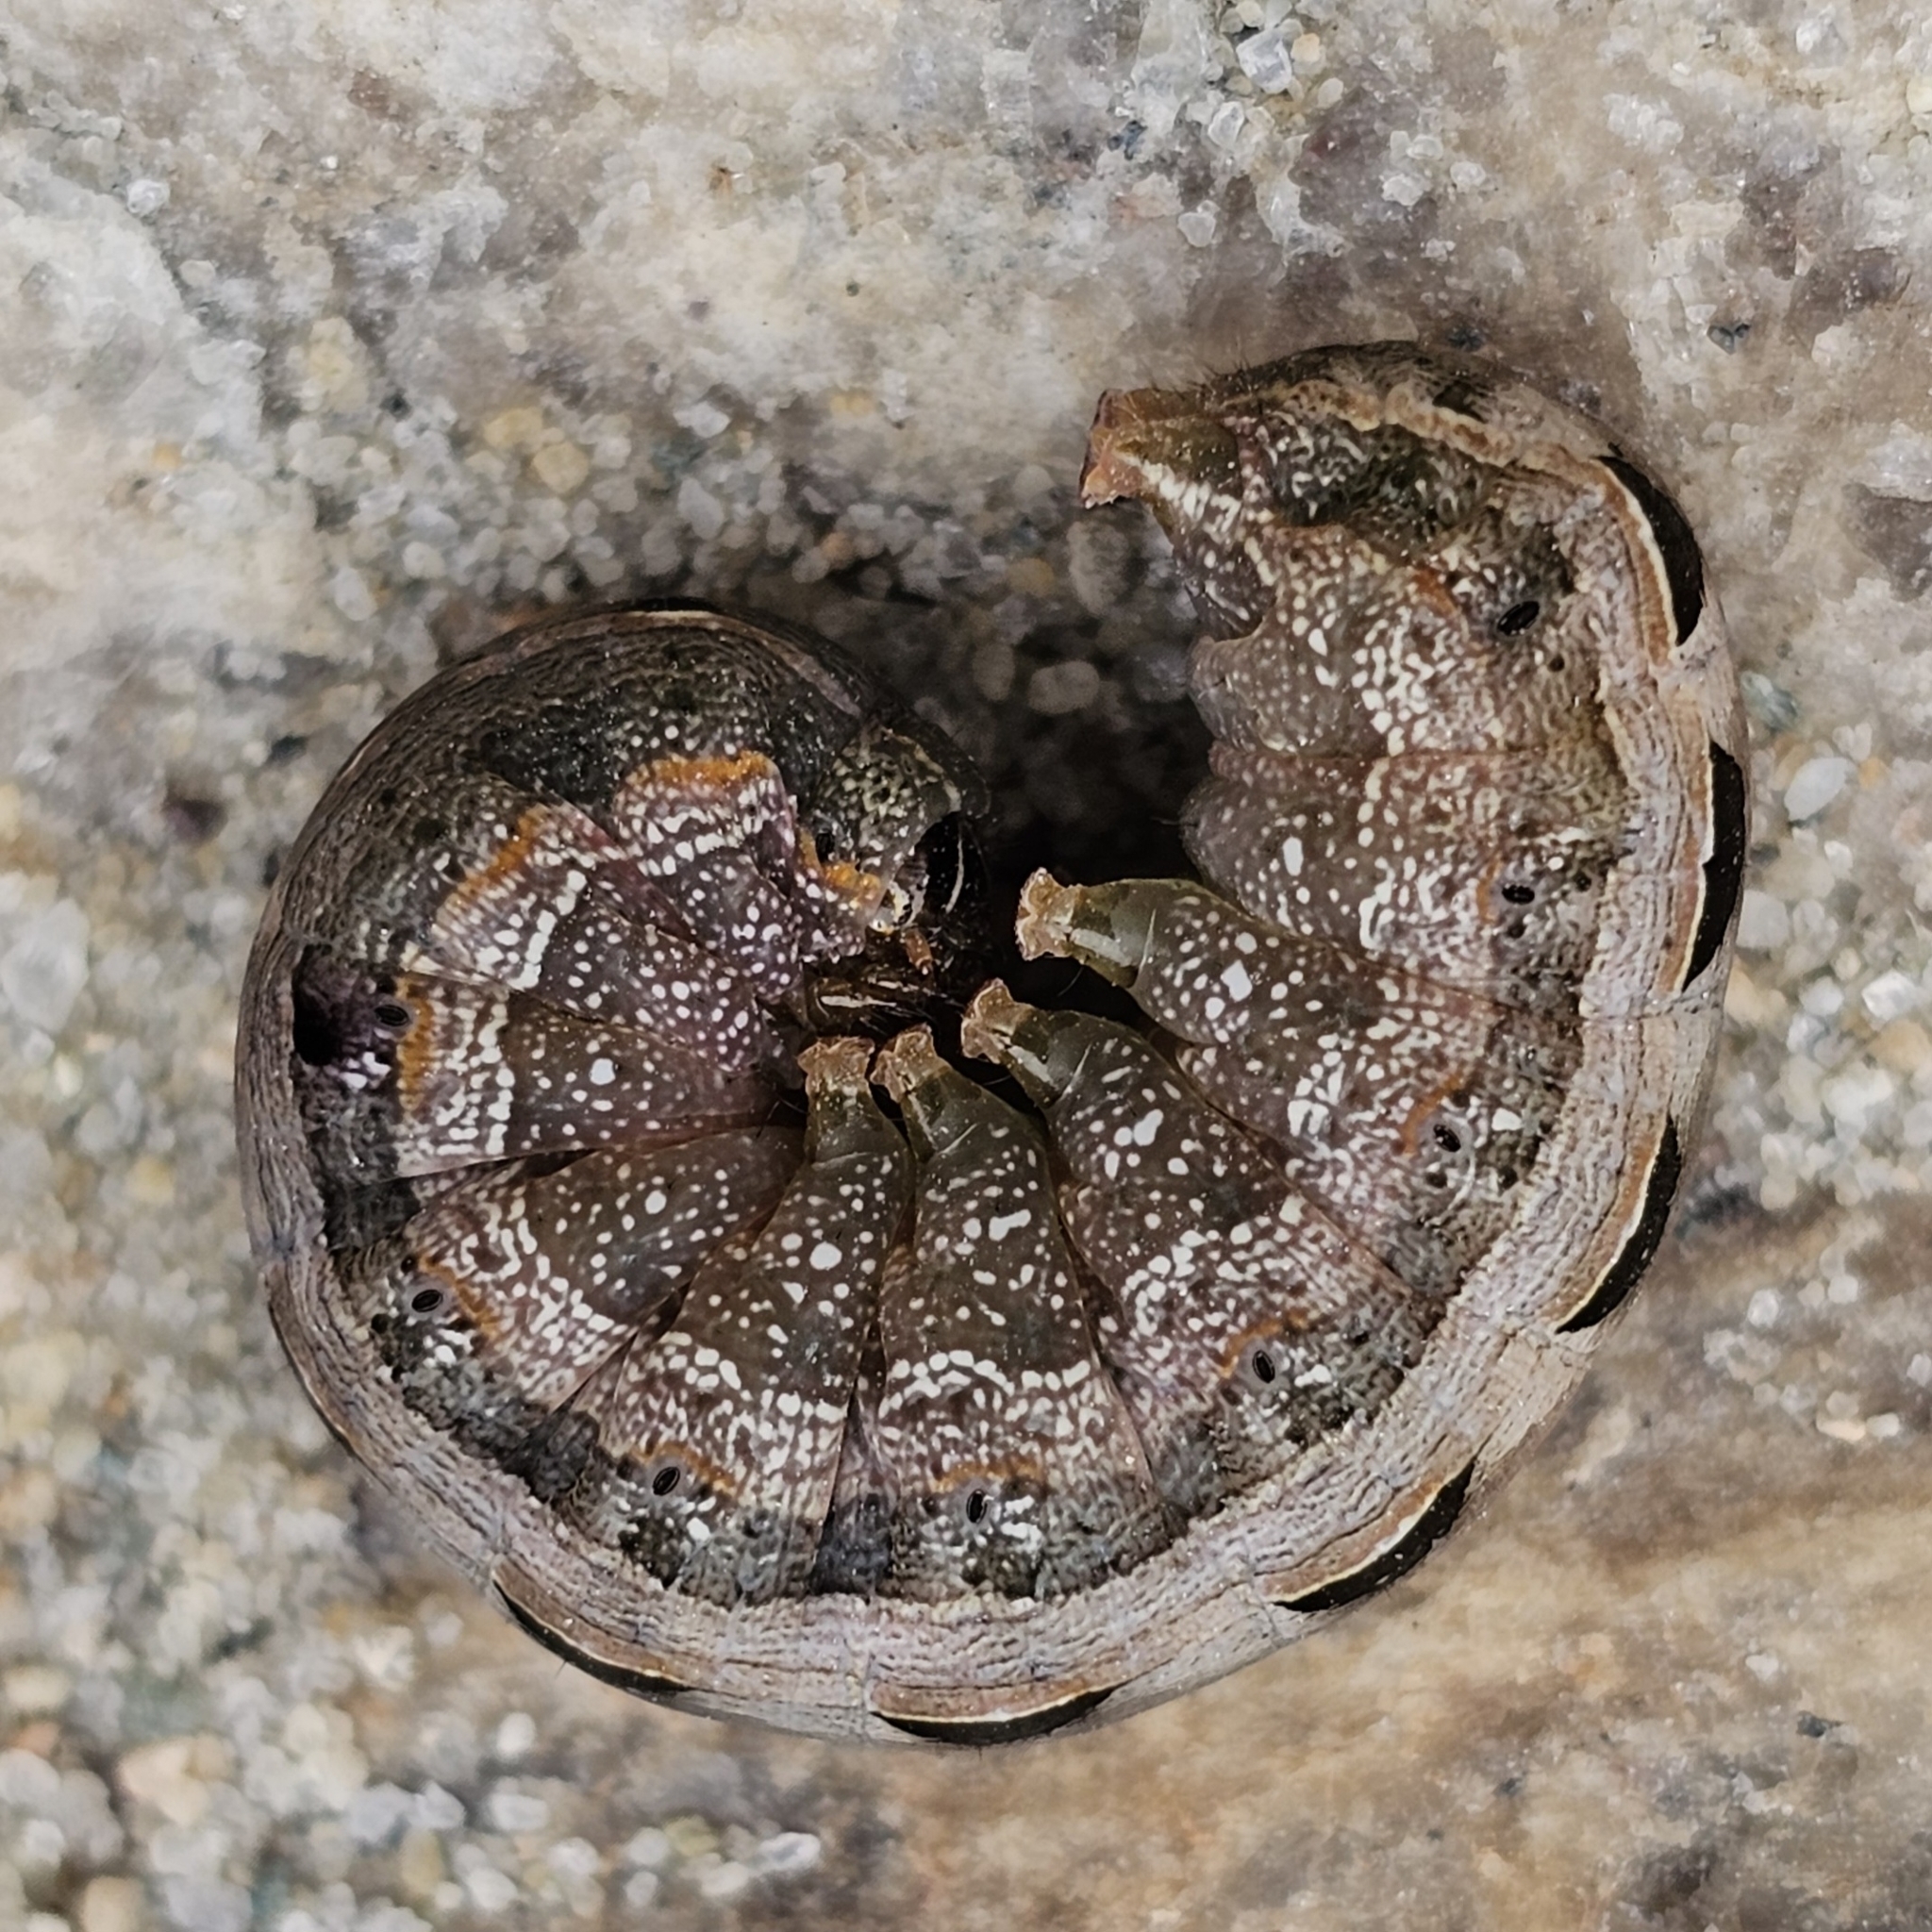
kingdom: Animalia
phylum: Arthropoda
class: Insecta
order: Lepidoptera
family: Noctuidae
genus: Spodoptera
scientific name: Spodoptera latifascia
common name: Velvet armyworm moth
